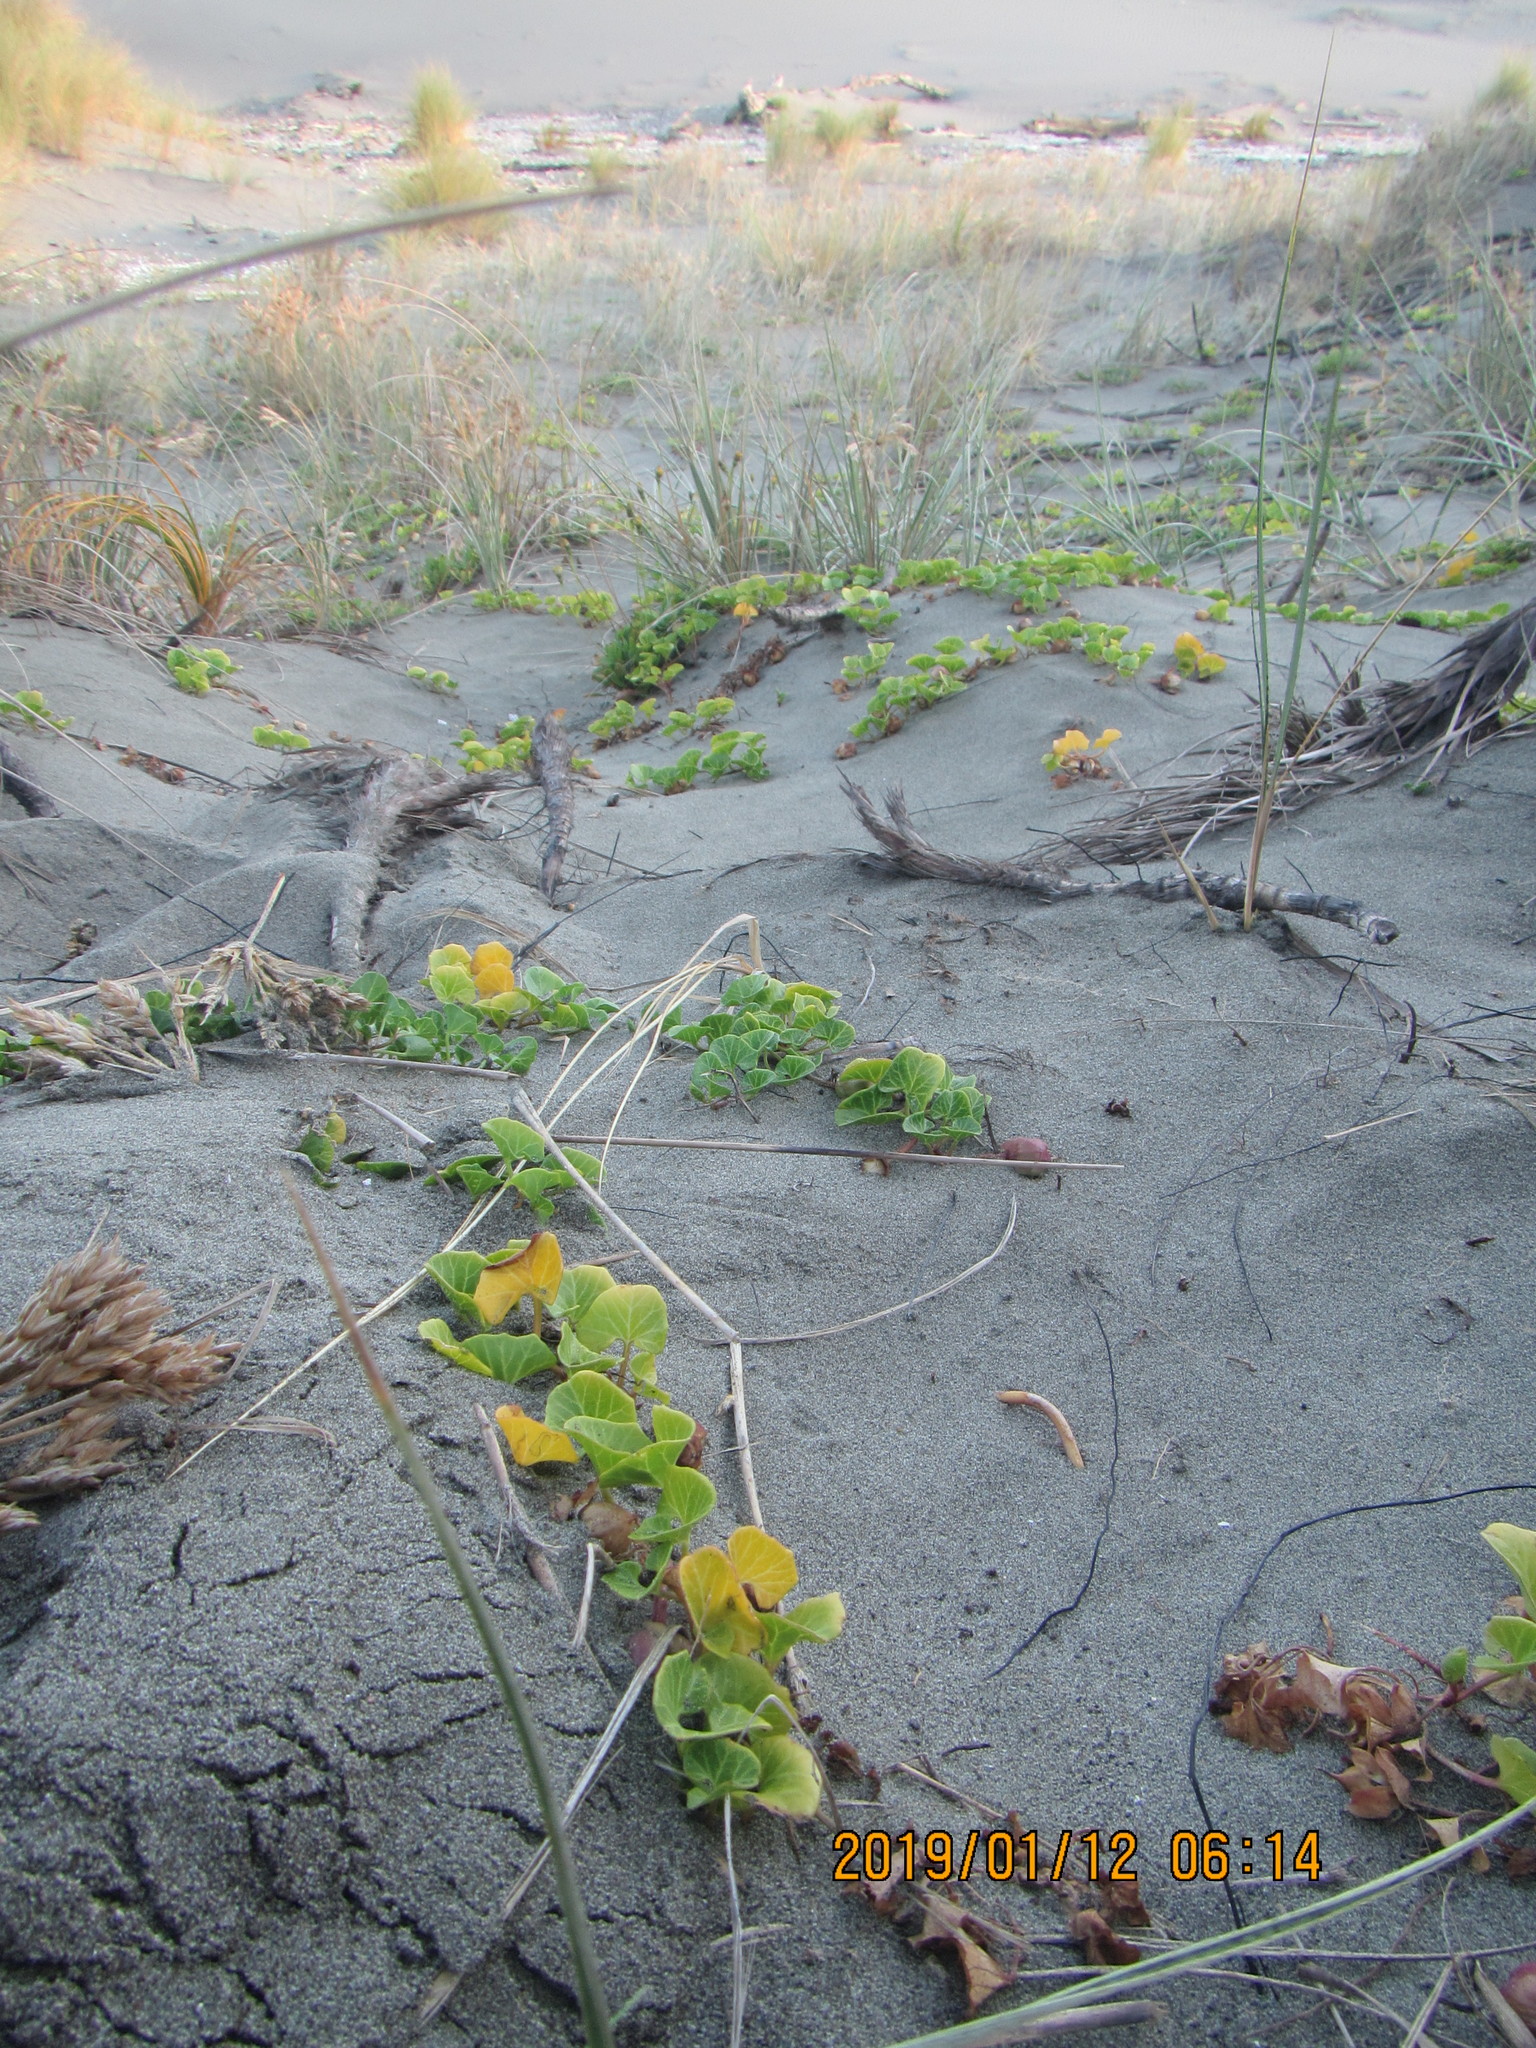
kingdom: Plantae
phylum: Tracheophyta
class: Magnoliopsida
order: Solanales
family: Convolvulaceae
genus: Calystegia
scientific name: Calystegia soldanella
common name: Sea bindweed
